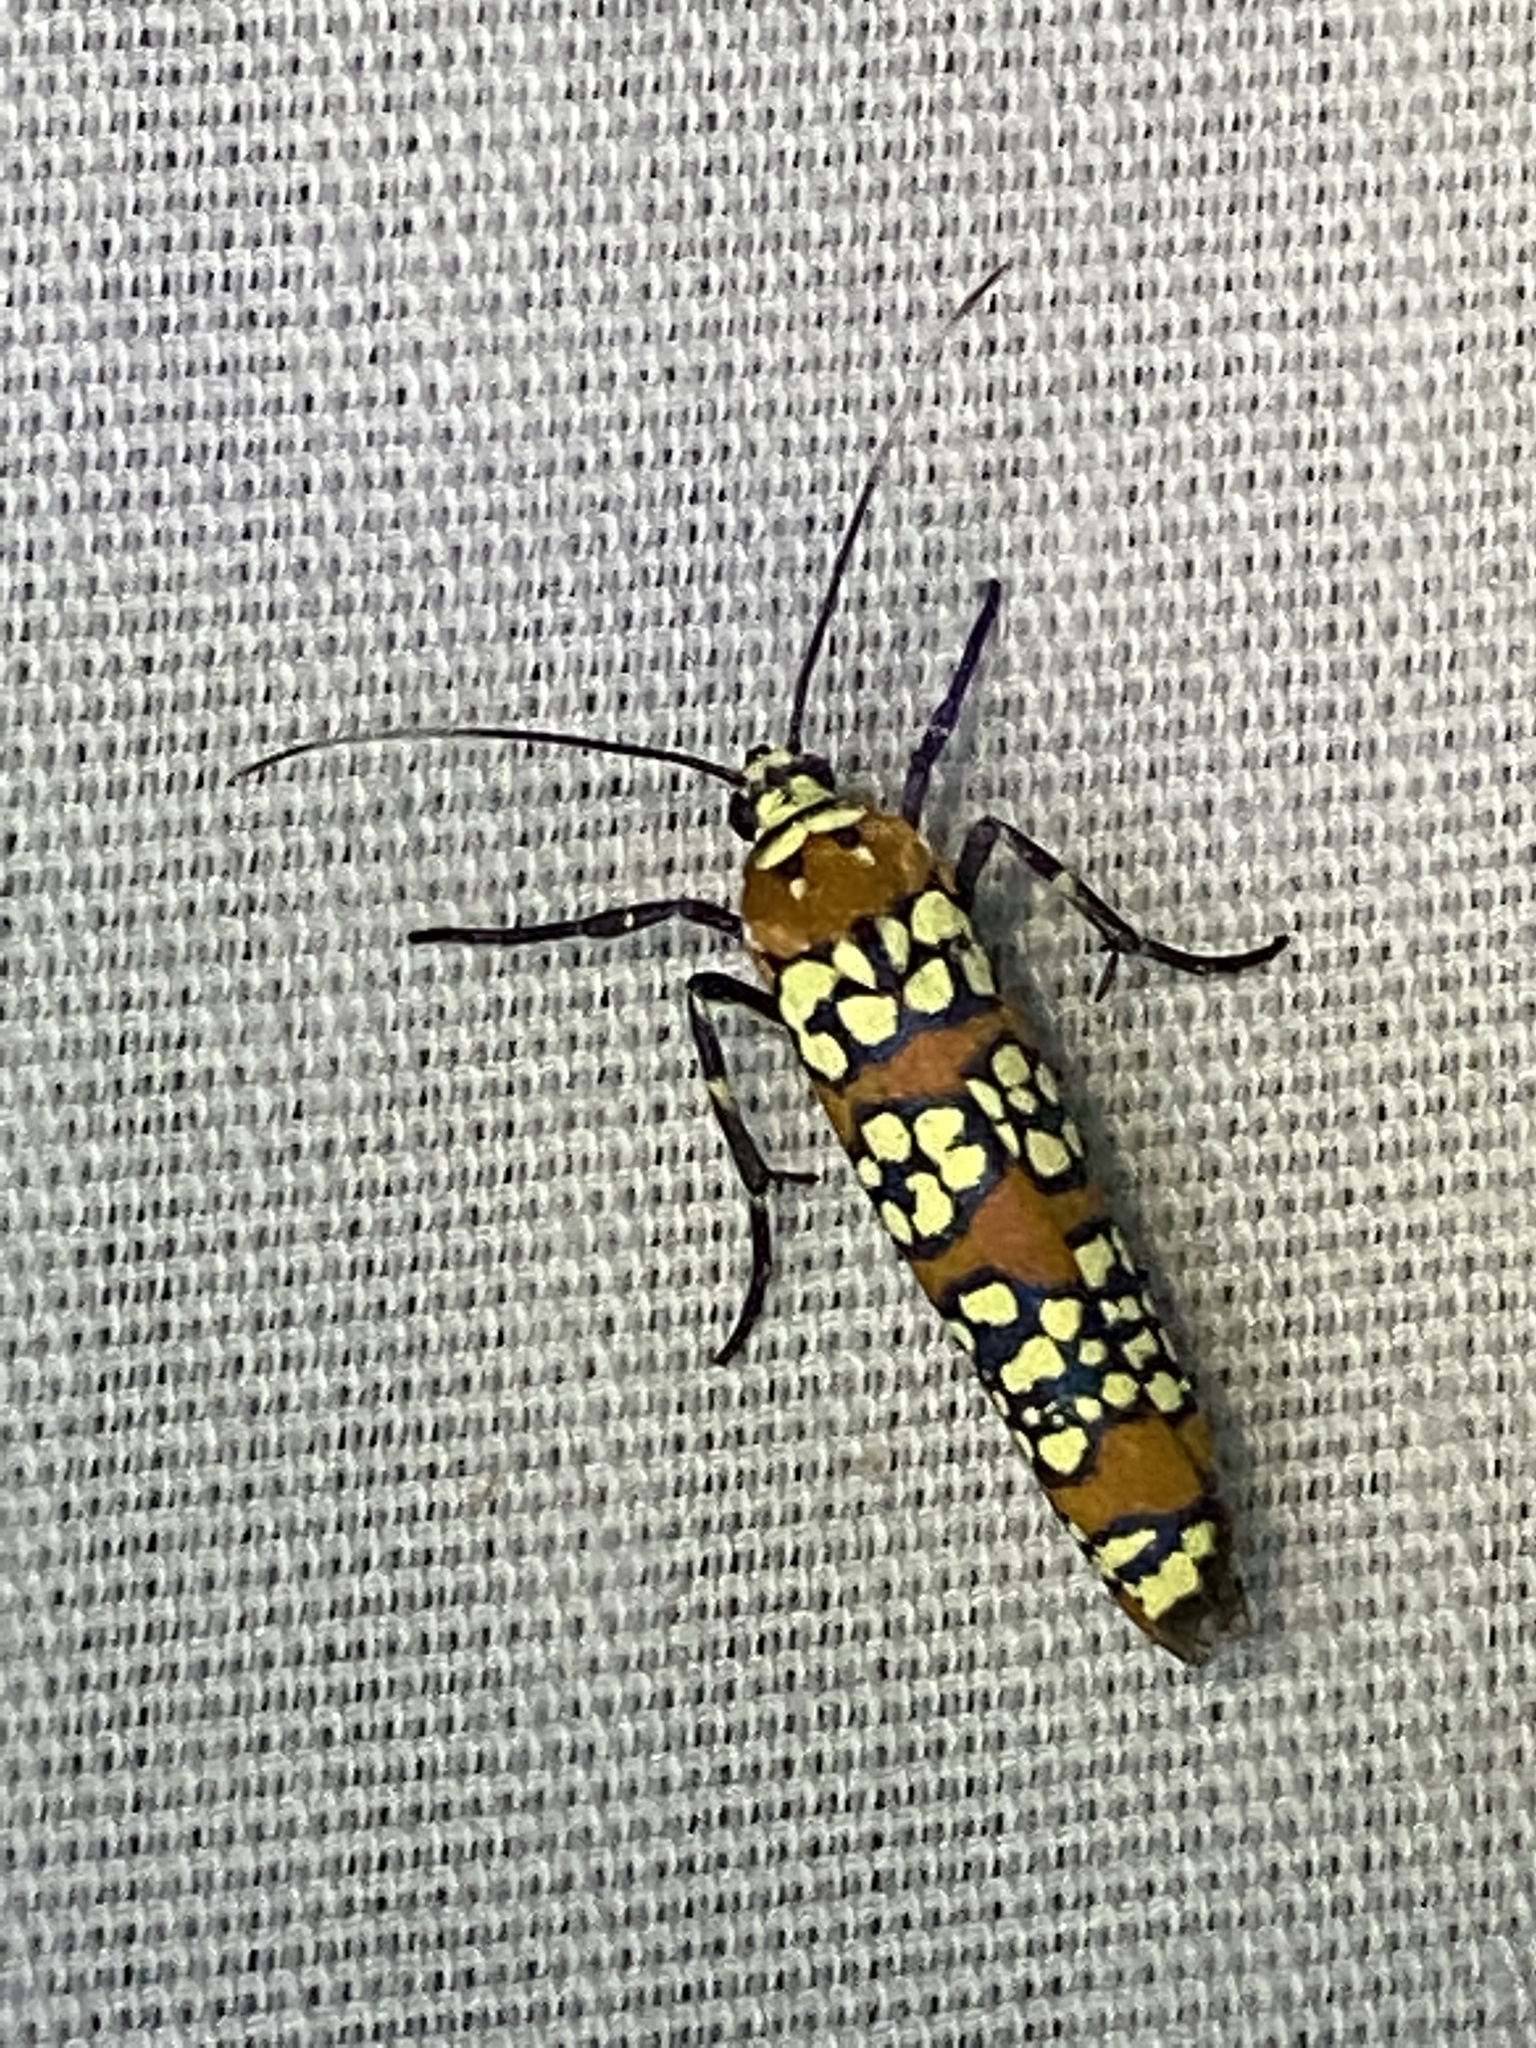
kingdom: Animalia
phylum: Arthropoda
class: Insecta
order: Lepidoptera
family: Attevidae
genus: Atteva
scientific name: Atteva punctella
